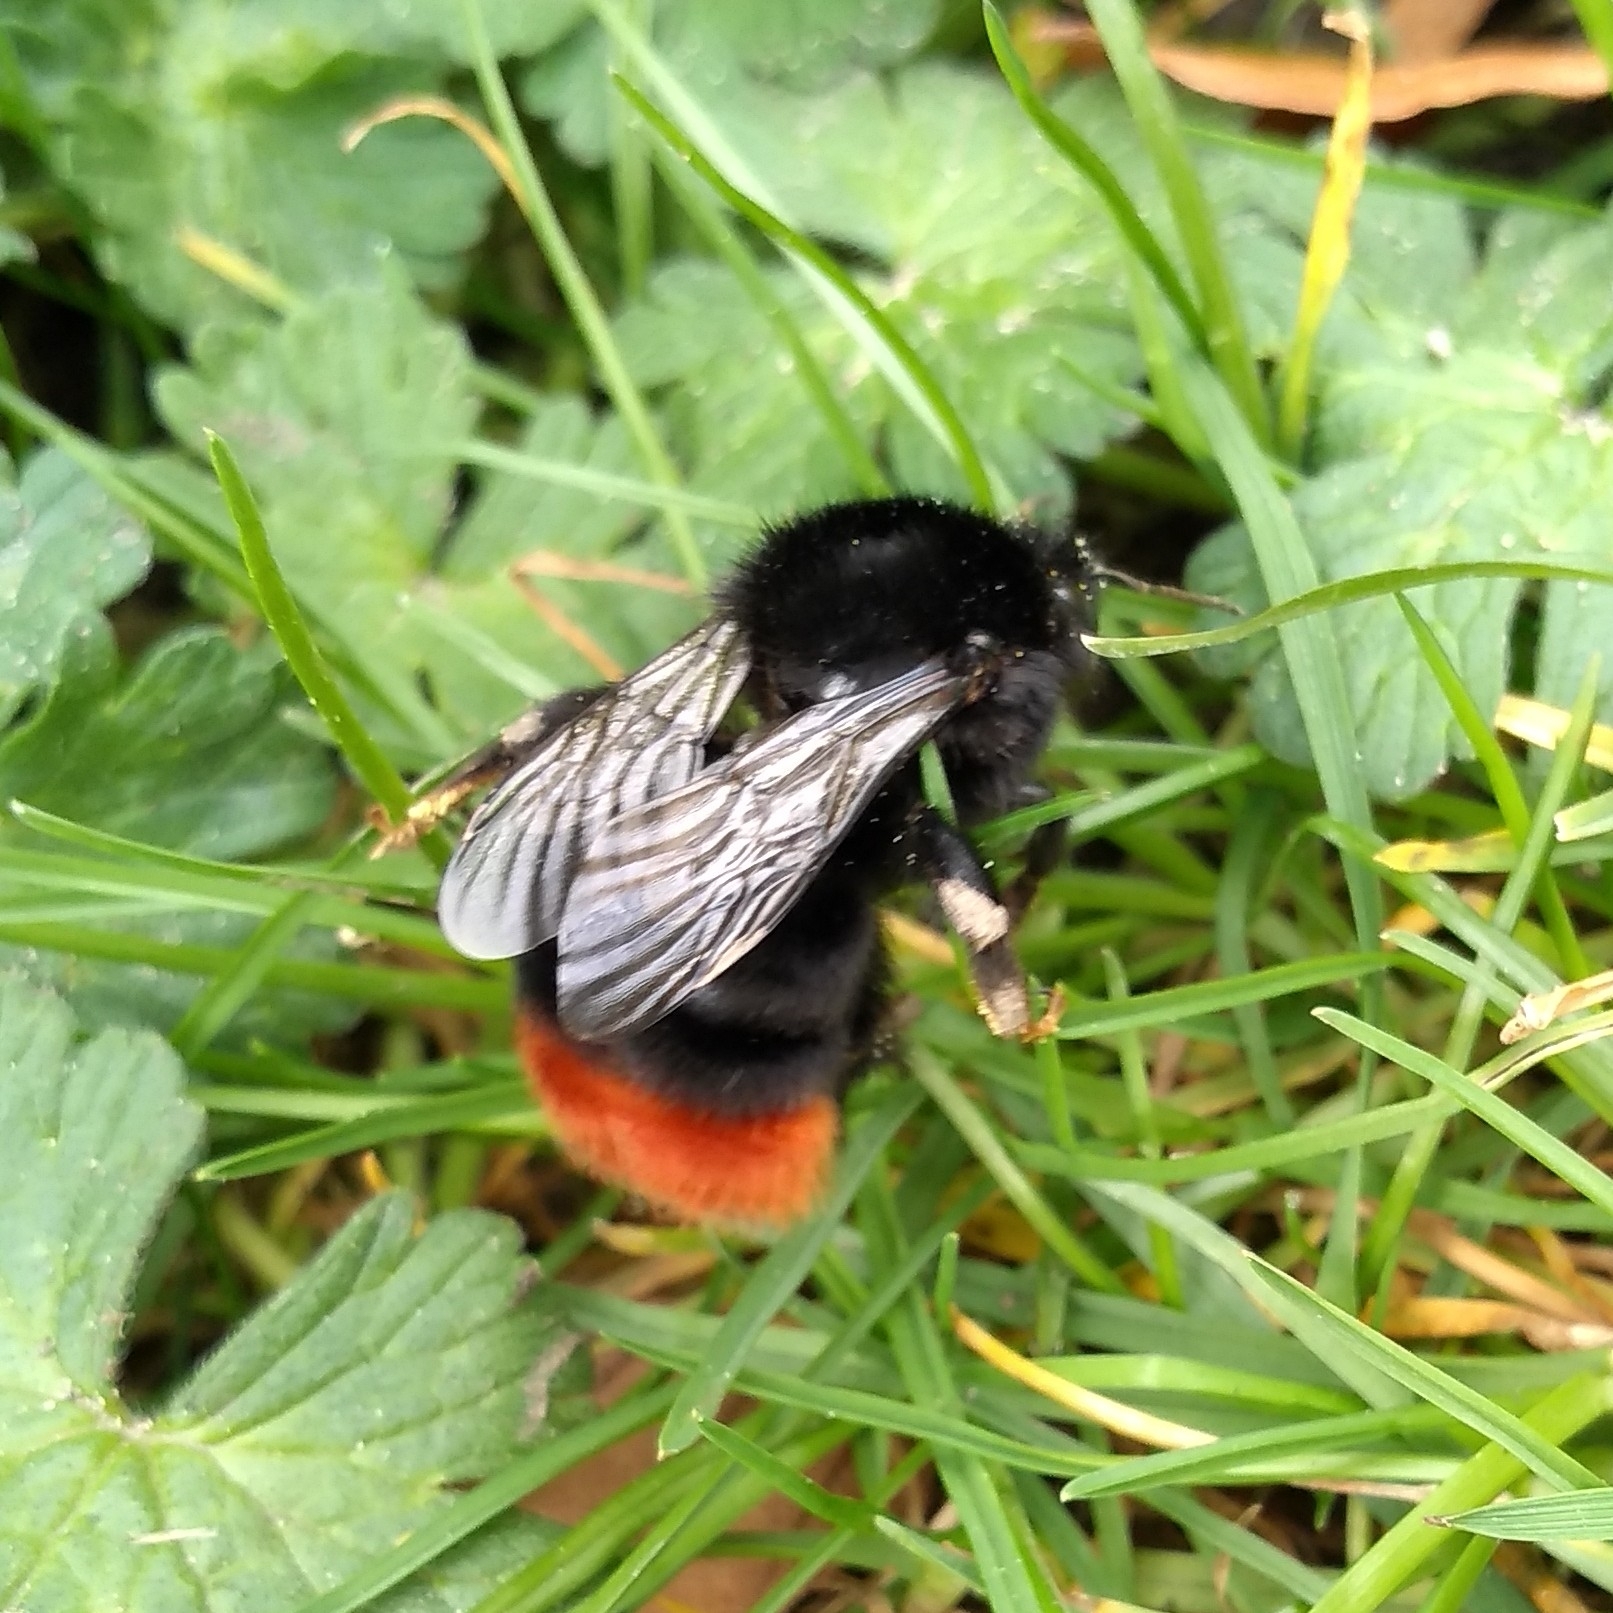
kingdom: Animalia
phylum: Arthropoda
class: Insecta
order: Hymenoptera
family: Apidae
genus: Bombus
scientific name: Bombus lapidarius
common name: Large red-tailed humble-bee
